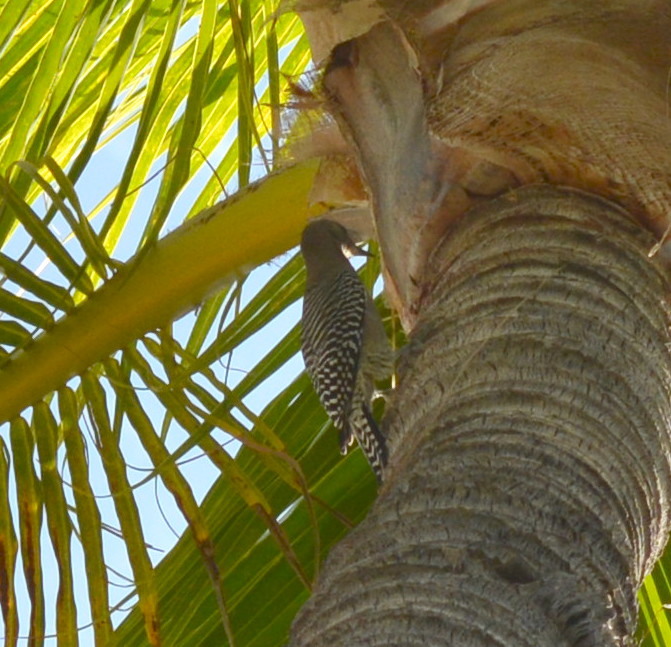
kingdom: Animalia
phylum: Chordata
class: Aves
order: Piciformes
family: Picidae
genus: Melanerpes
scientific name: Melanerpes uropygialis
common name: Gila woodpecker
